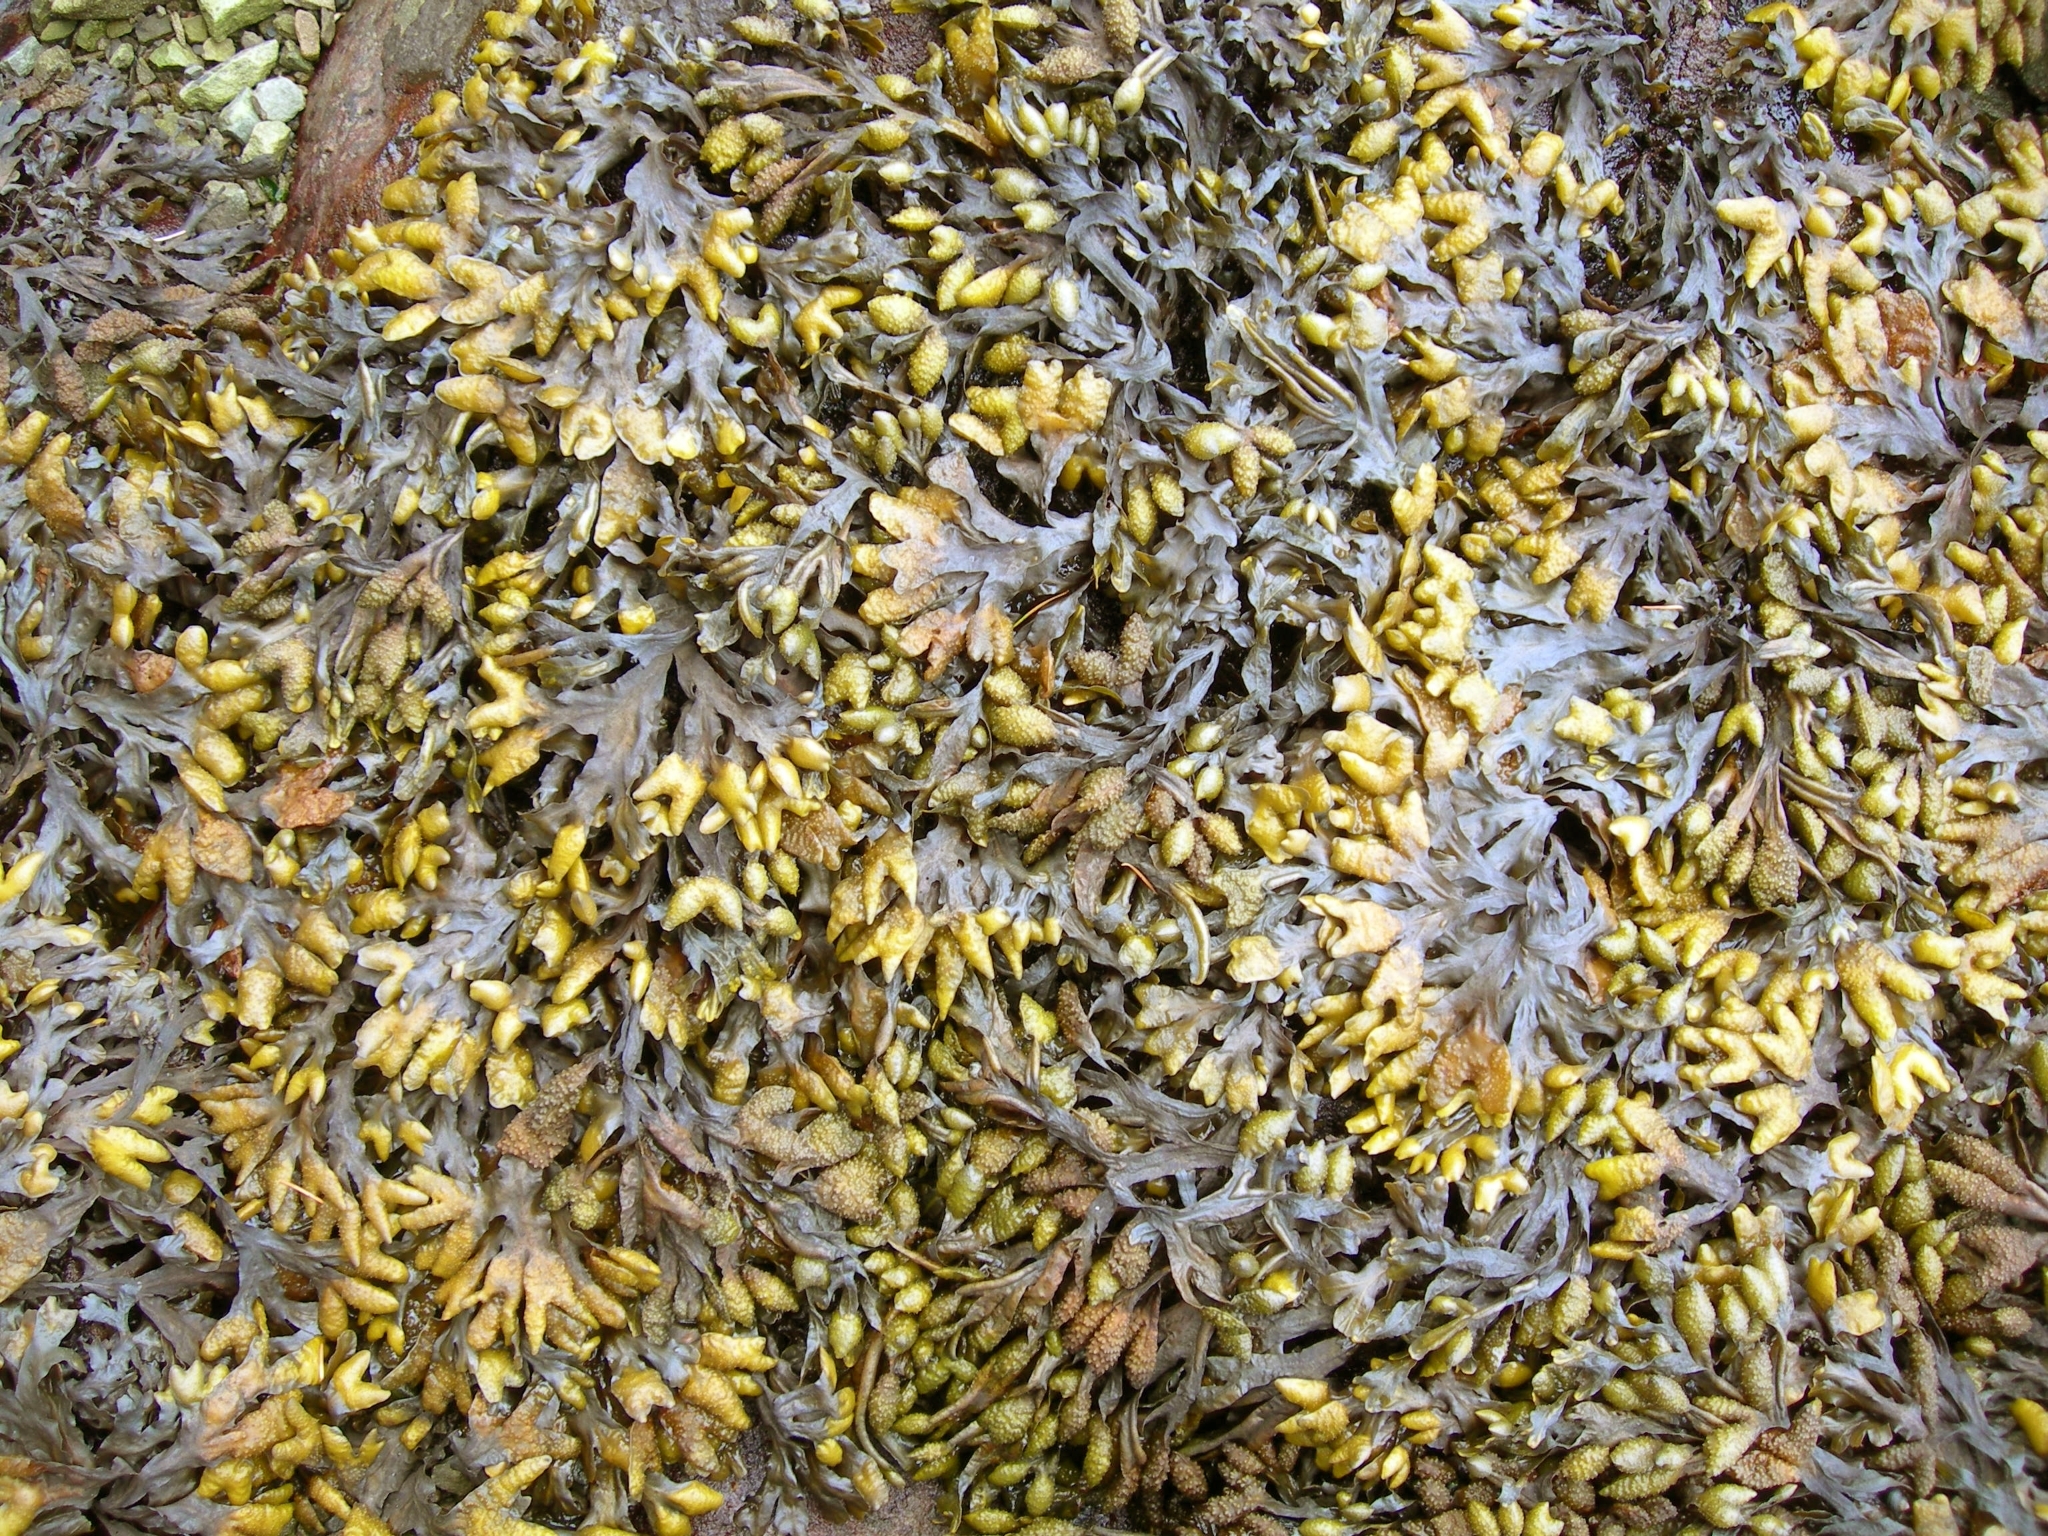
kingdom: Chromista
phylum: Ochrophyta
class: Phaeophyceae
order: Fucales
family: Fucaceae
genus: Fucus
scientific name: Fucus distichus
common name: Rockweed
